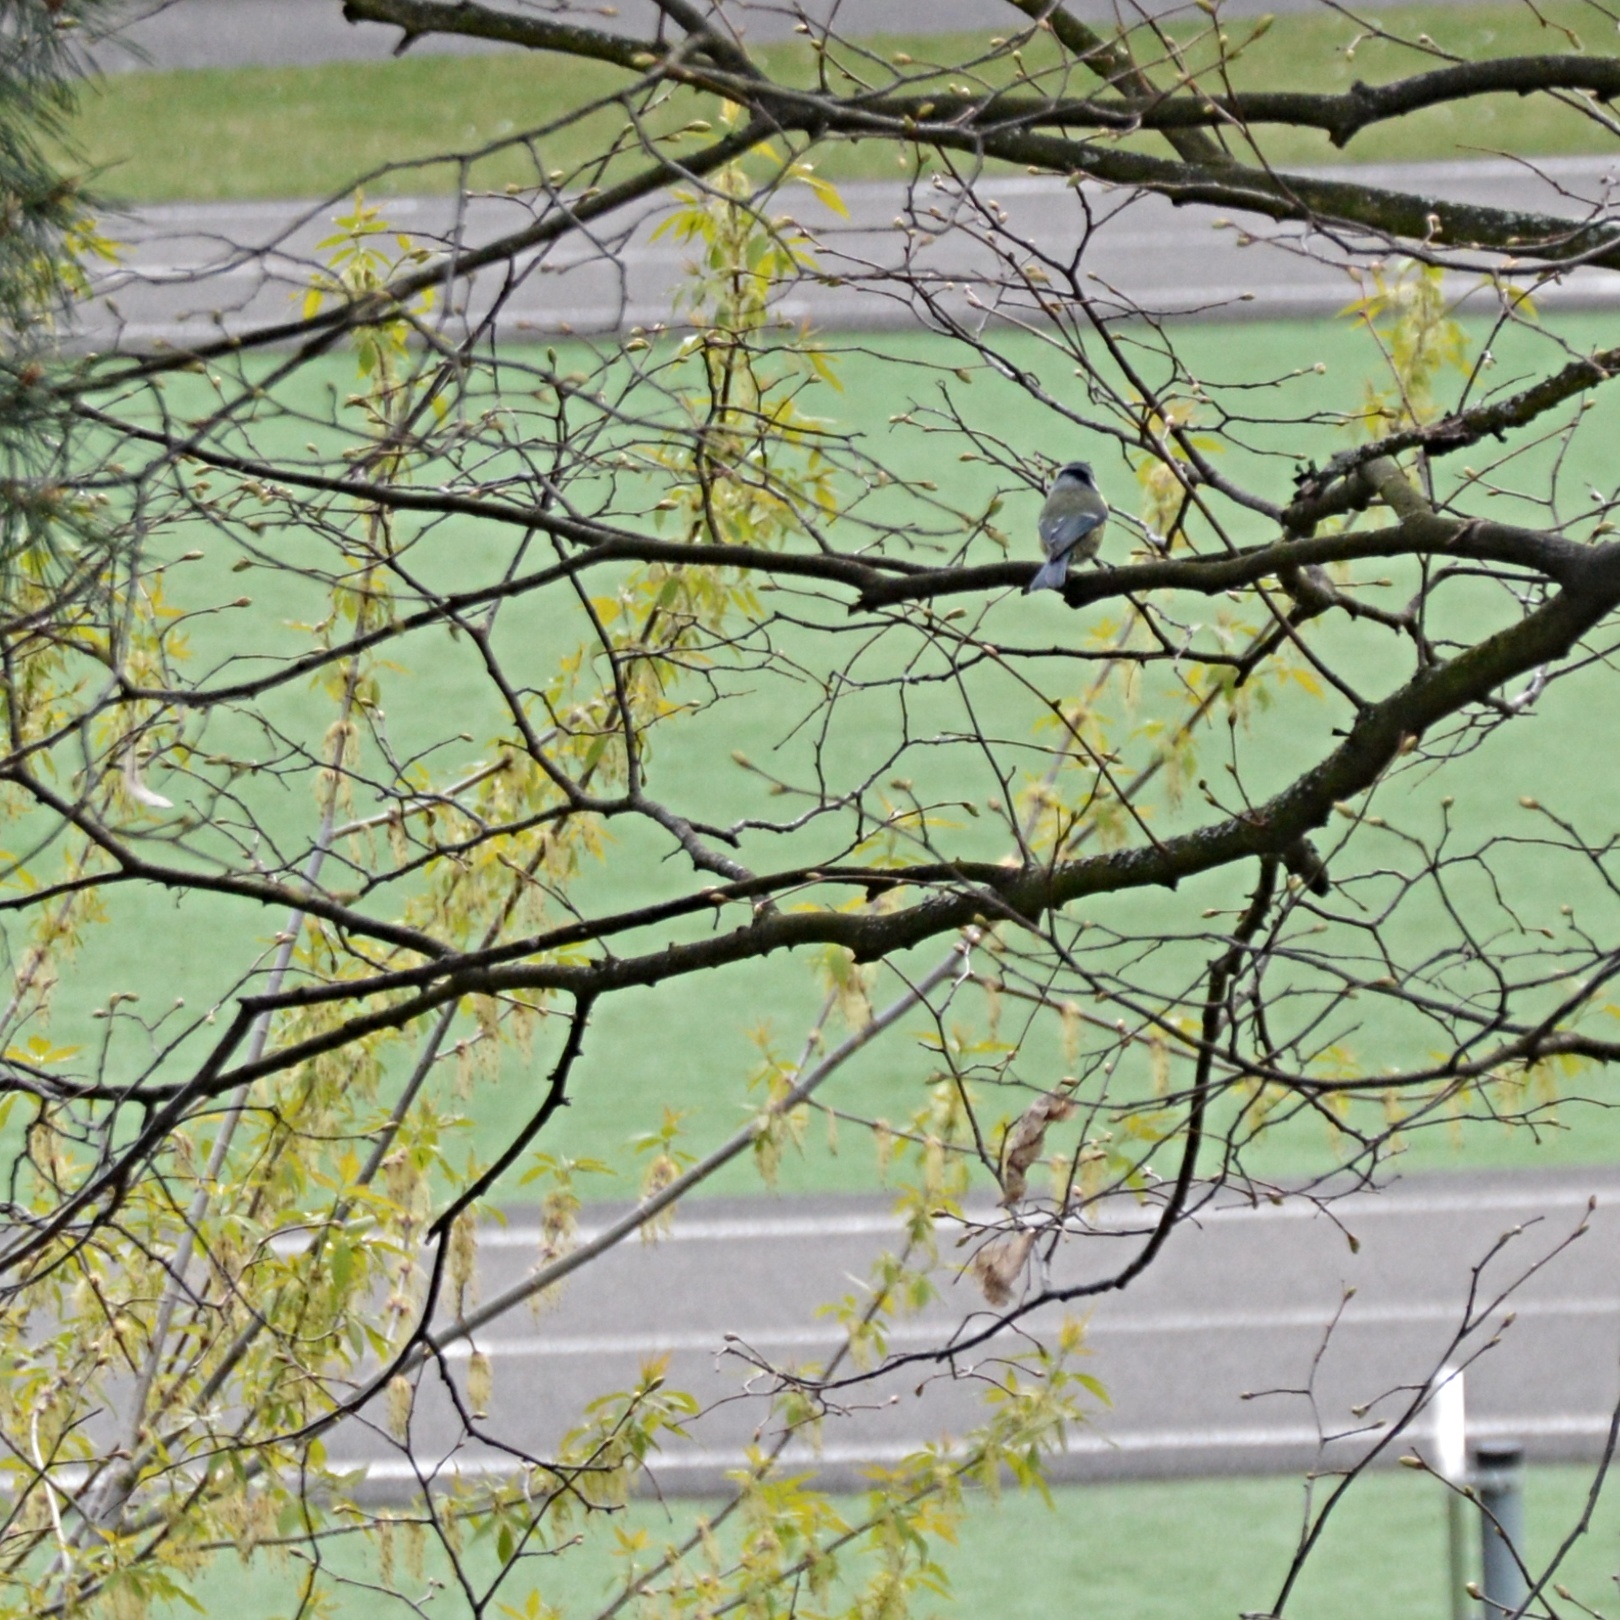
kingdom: Animalia
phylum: Chordata
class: Aves
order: Passeriformes
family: Paridae
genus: Cyanistes
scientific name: Cyanistes caeruleus
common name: Eurasian blue tit
